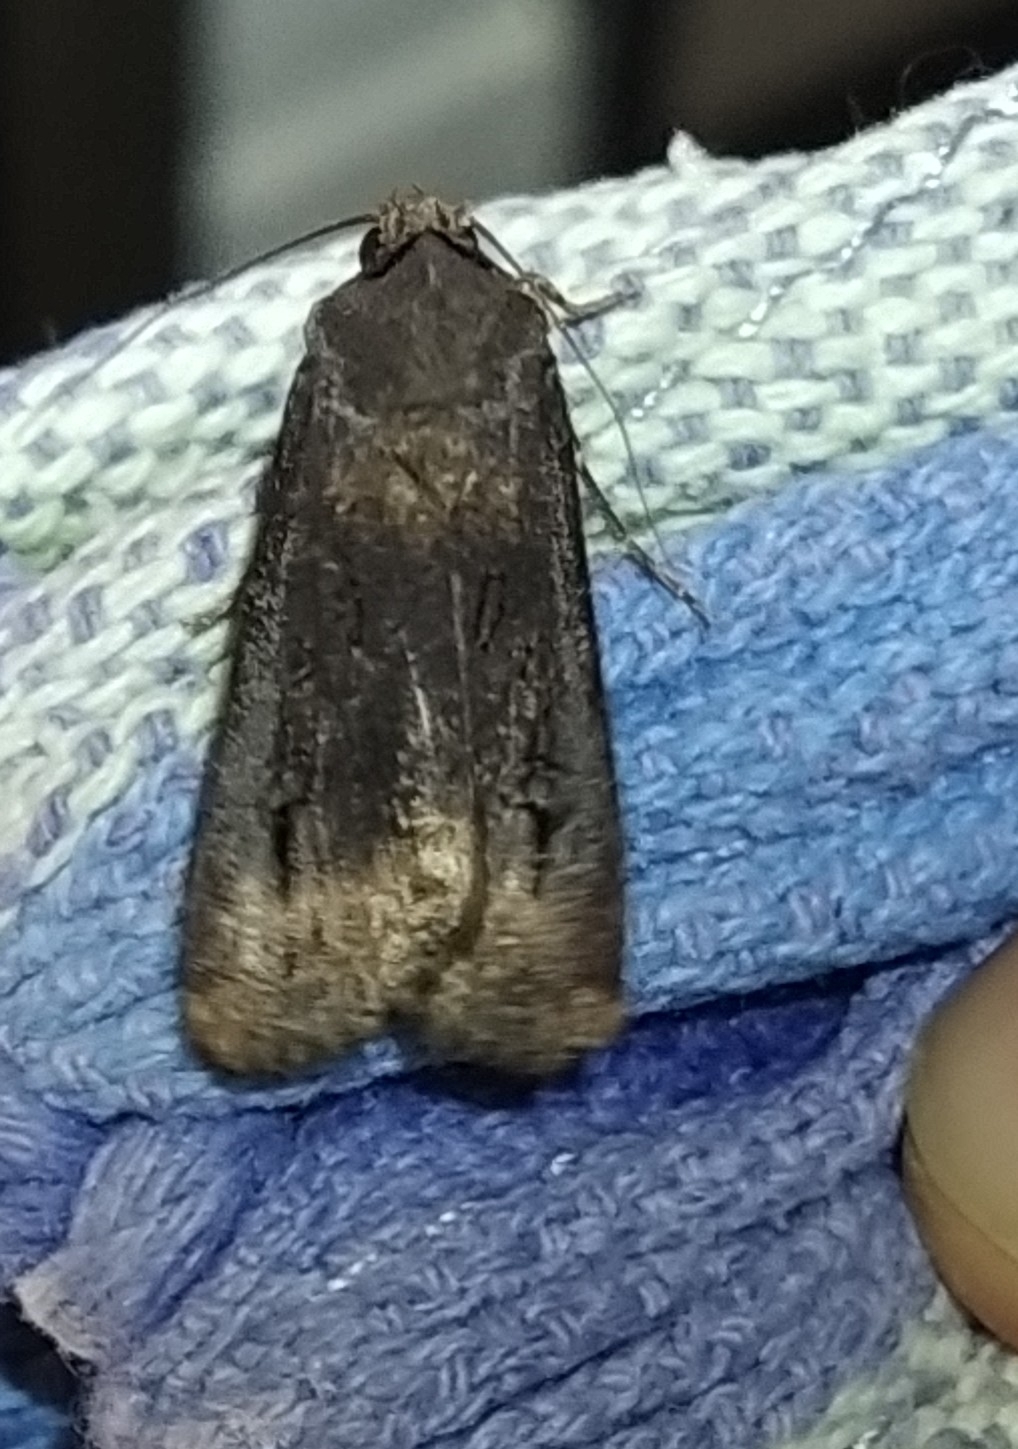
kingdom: Animalia
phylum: Arthropoda
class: Insecta
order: Lepidoptera
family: Noctuidae
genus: Agrotis
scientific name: Agrotis ipsilon
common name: Dark sword-grass
